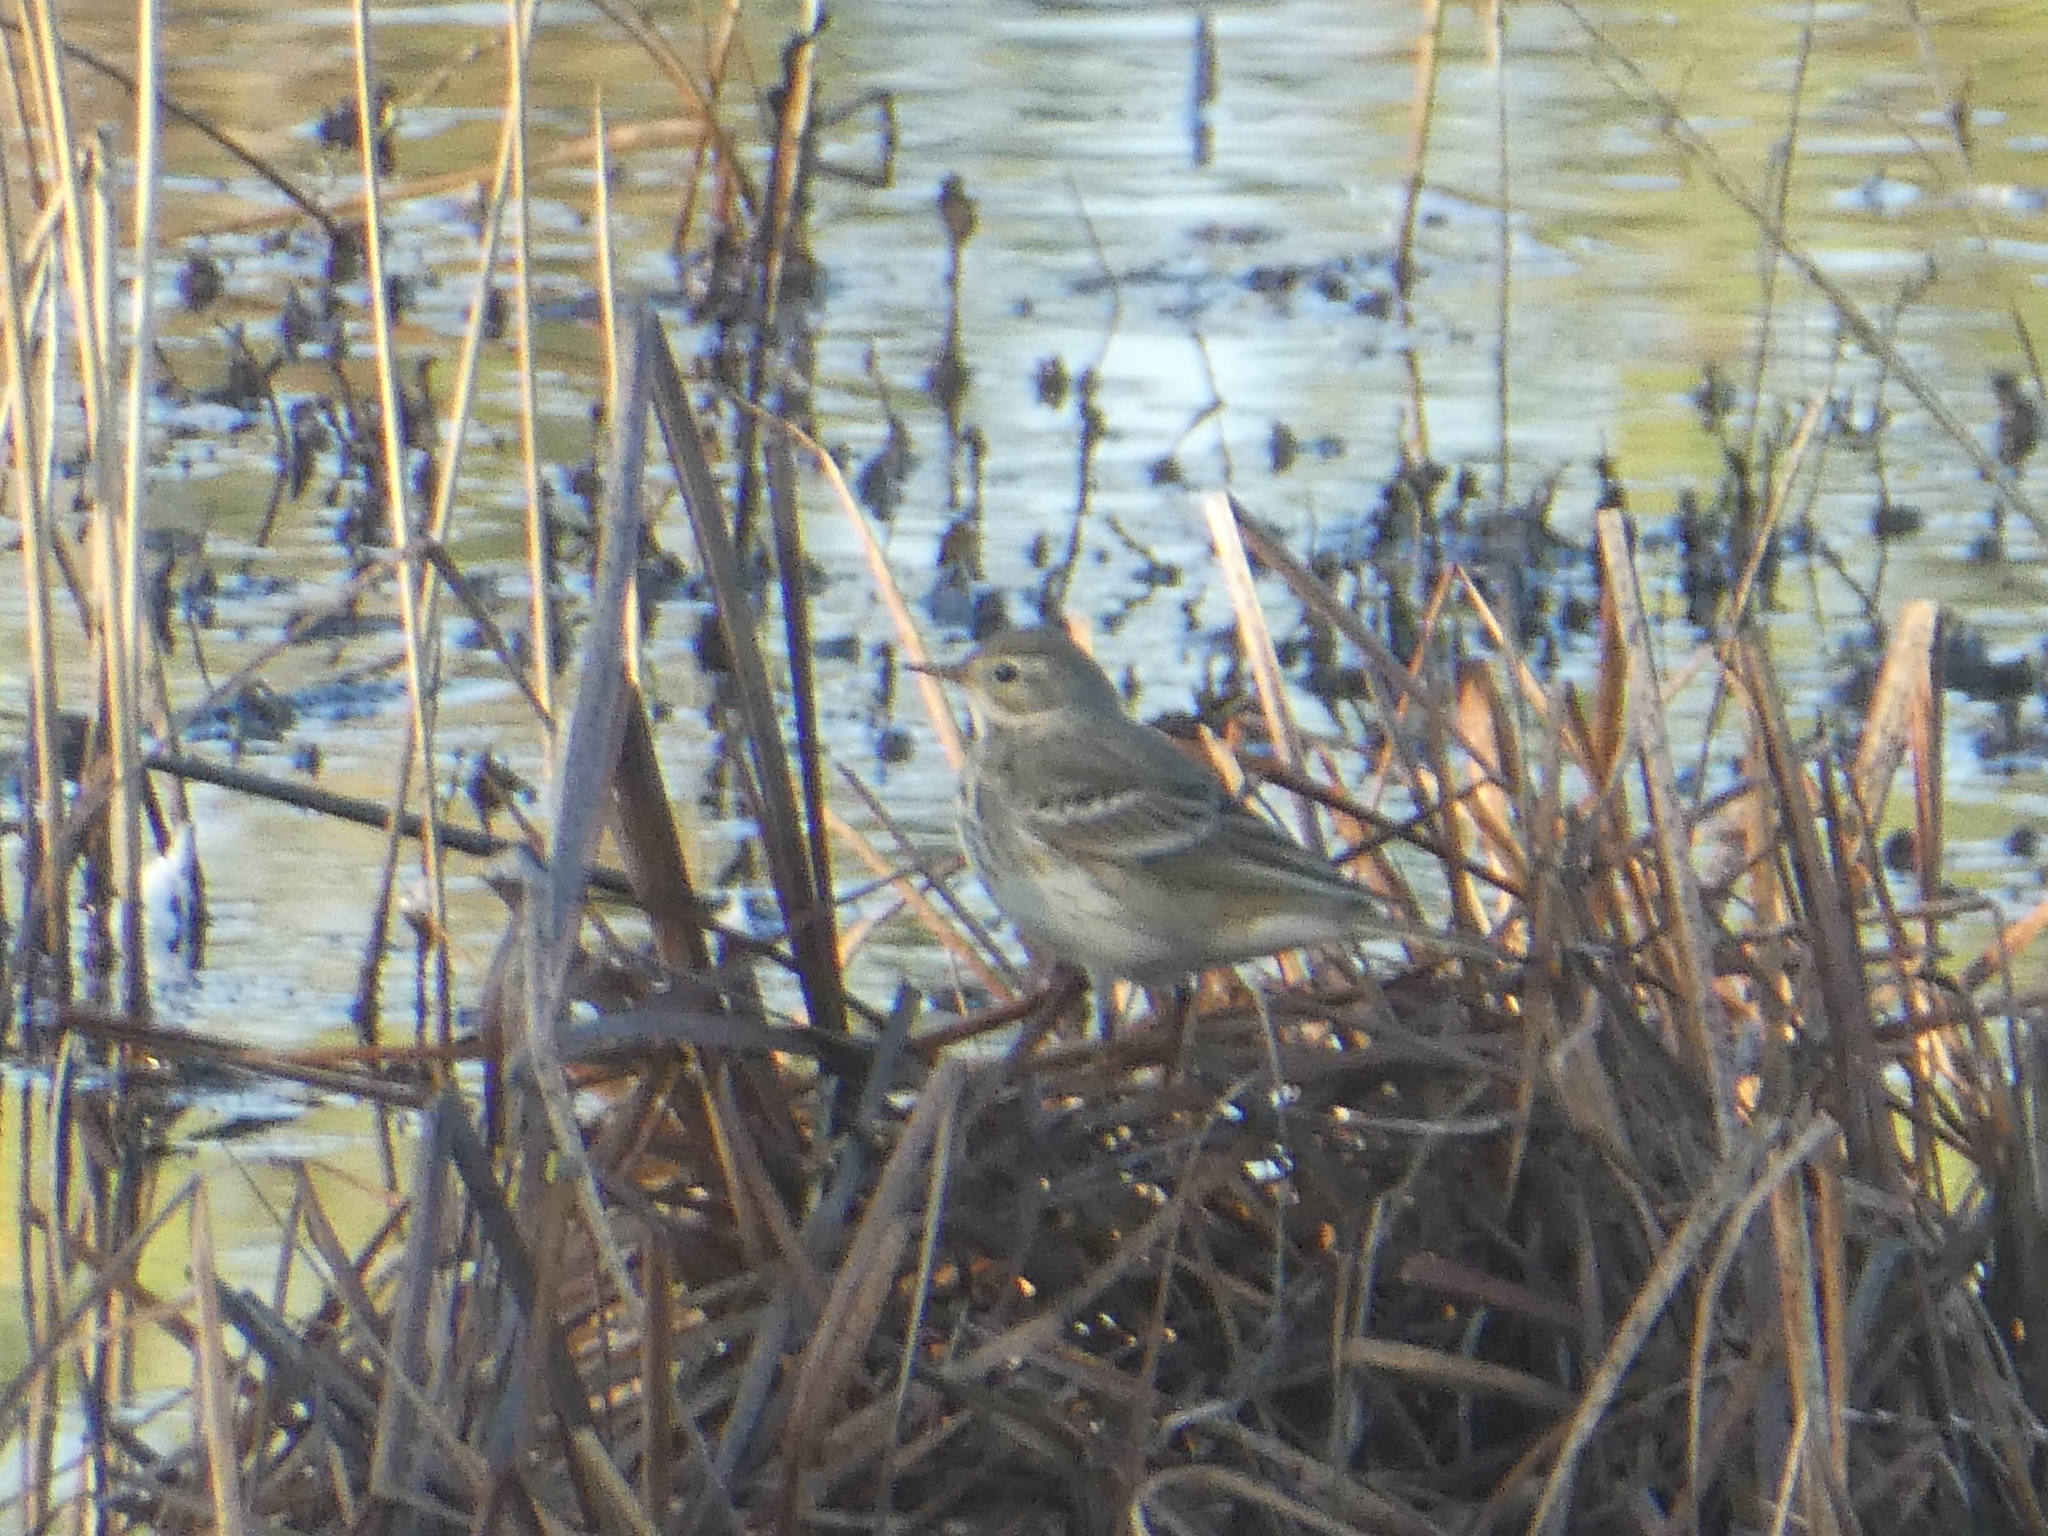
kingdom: Animalia
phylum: Chordata
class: Aves
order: Passeriformes
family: Motacillidae
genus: Anthus
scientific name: Anthus rubescens
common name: Buff-bellied pipit
